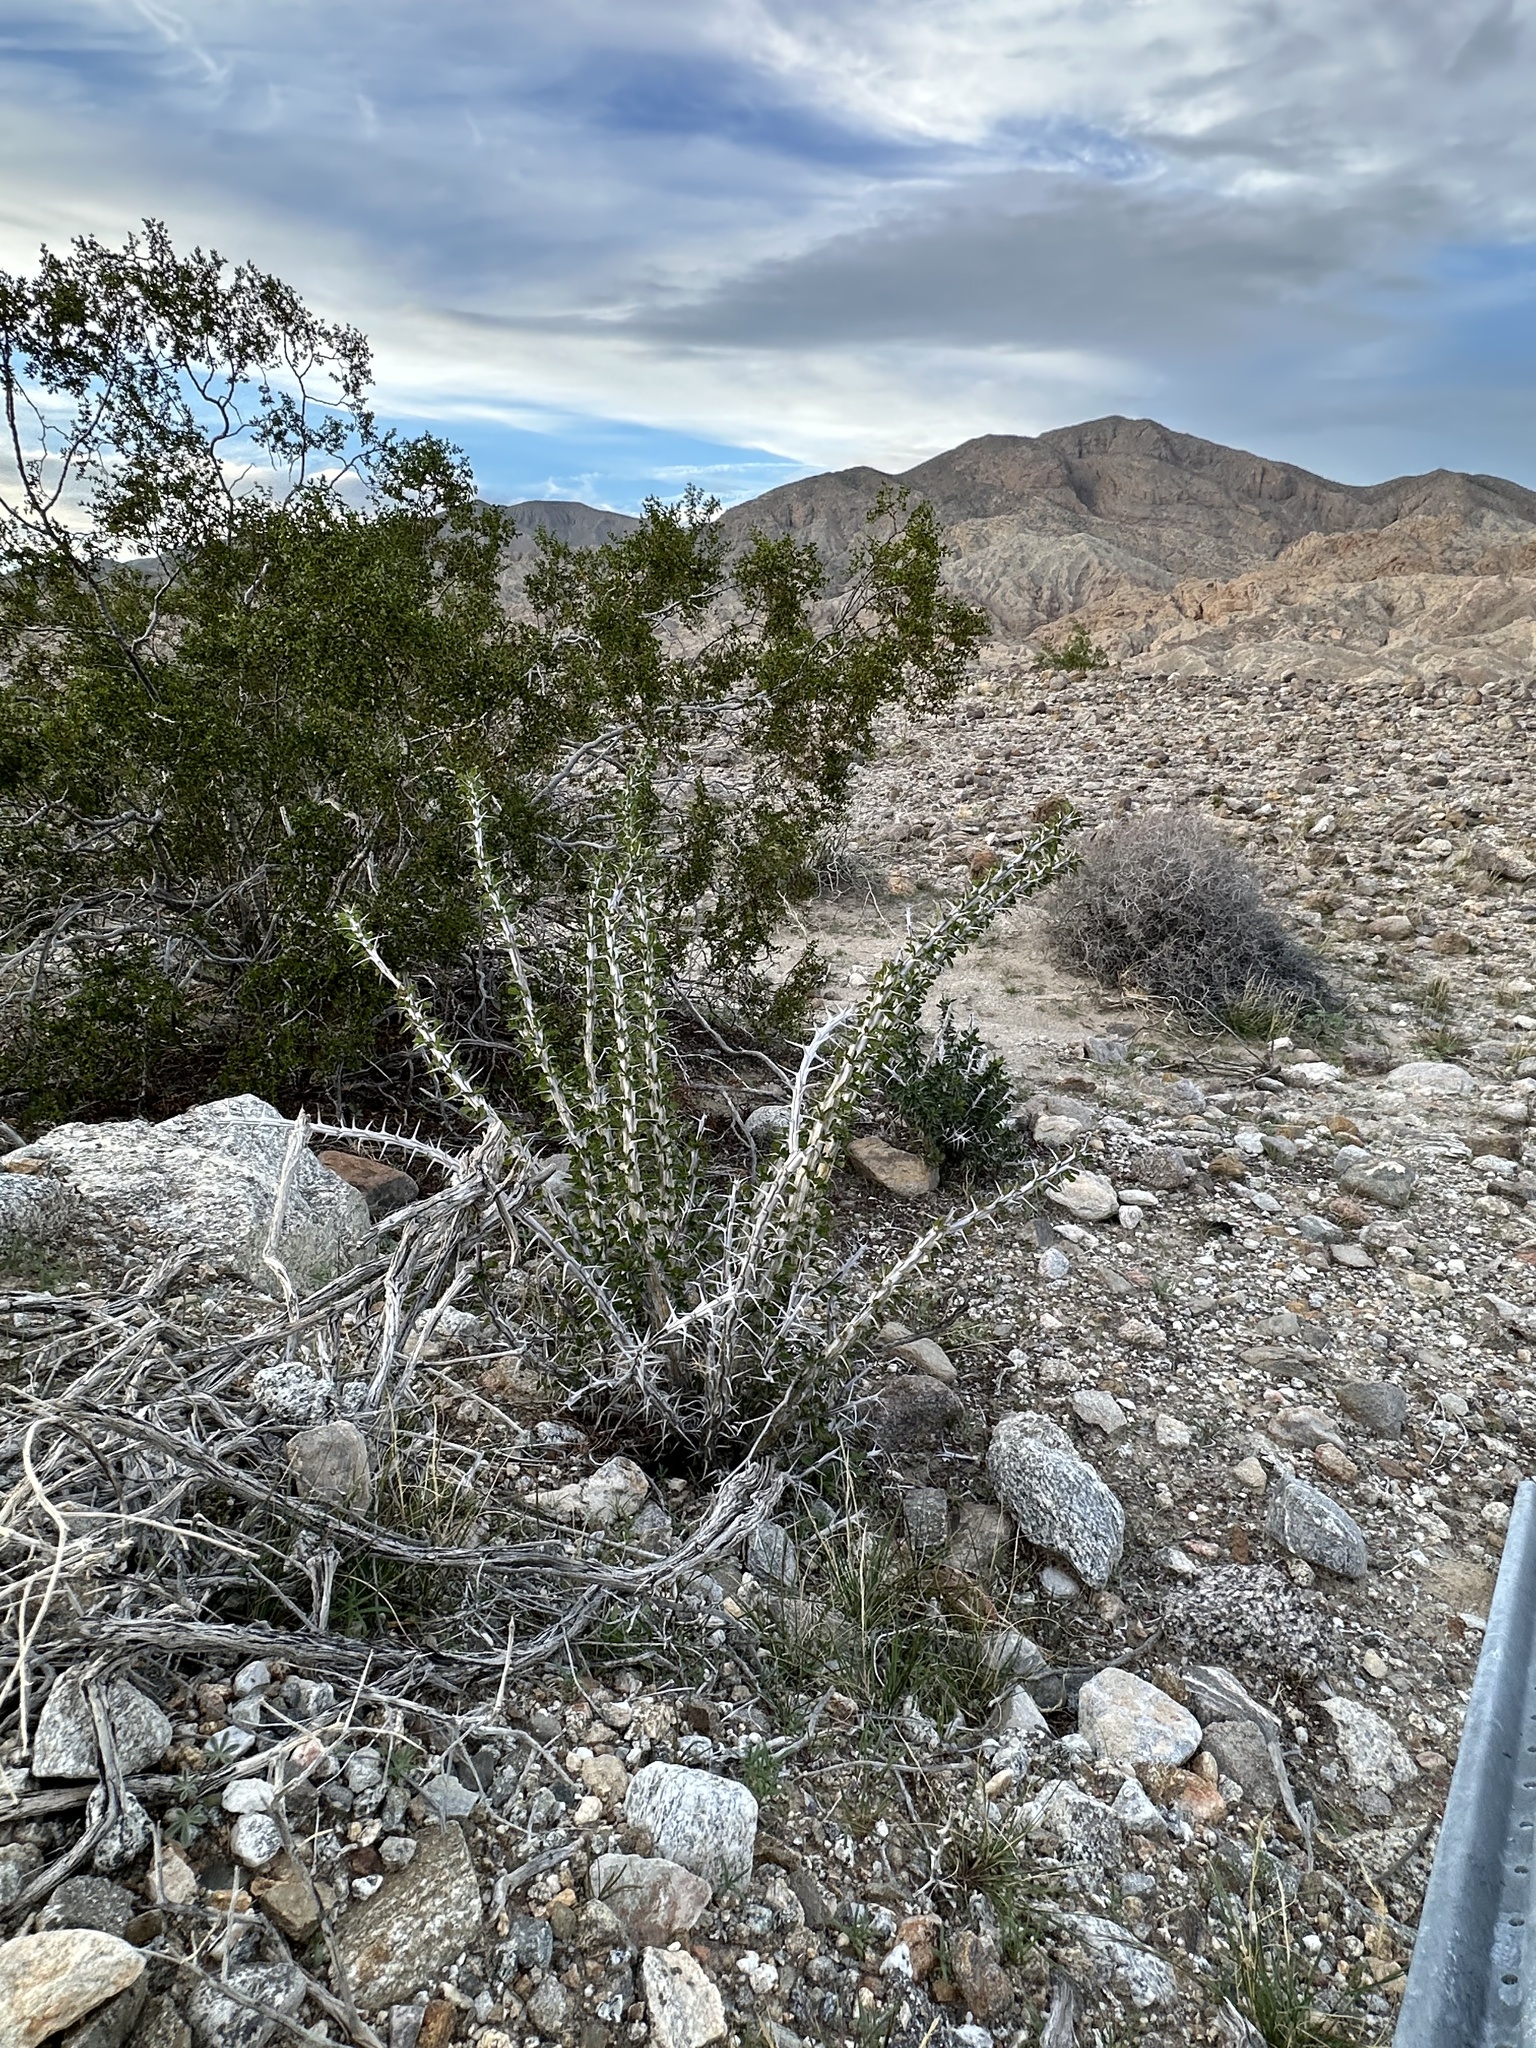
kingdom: Plantae
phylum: Tracheophyta
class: Magnoliopsida
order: Ericales
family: Fouquieriaceae
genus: Fouquieria
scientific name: Fouquieria splendens
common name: Vine-cactus
